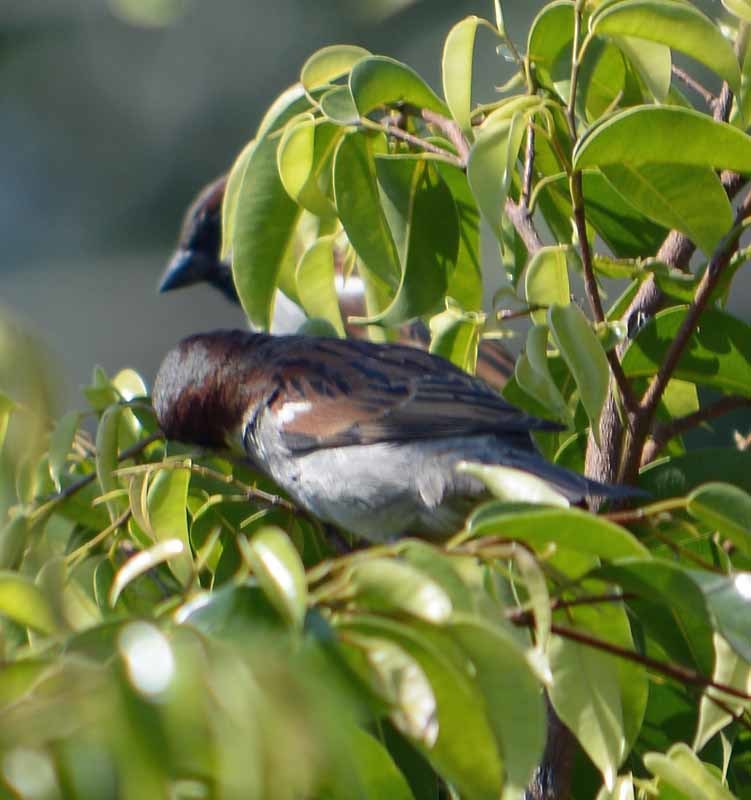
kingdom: Animalia
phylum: Chordata
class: Aves
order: Passeriformes
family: Passeridae
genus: Passer
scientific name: Passer domesticus
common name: House sparrow
